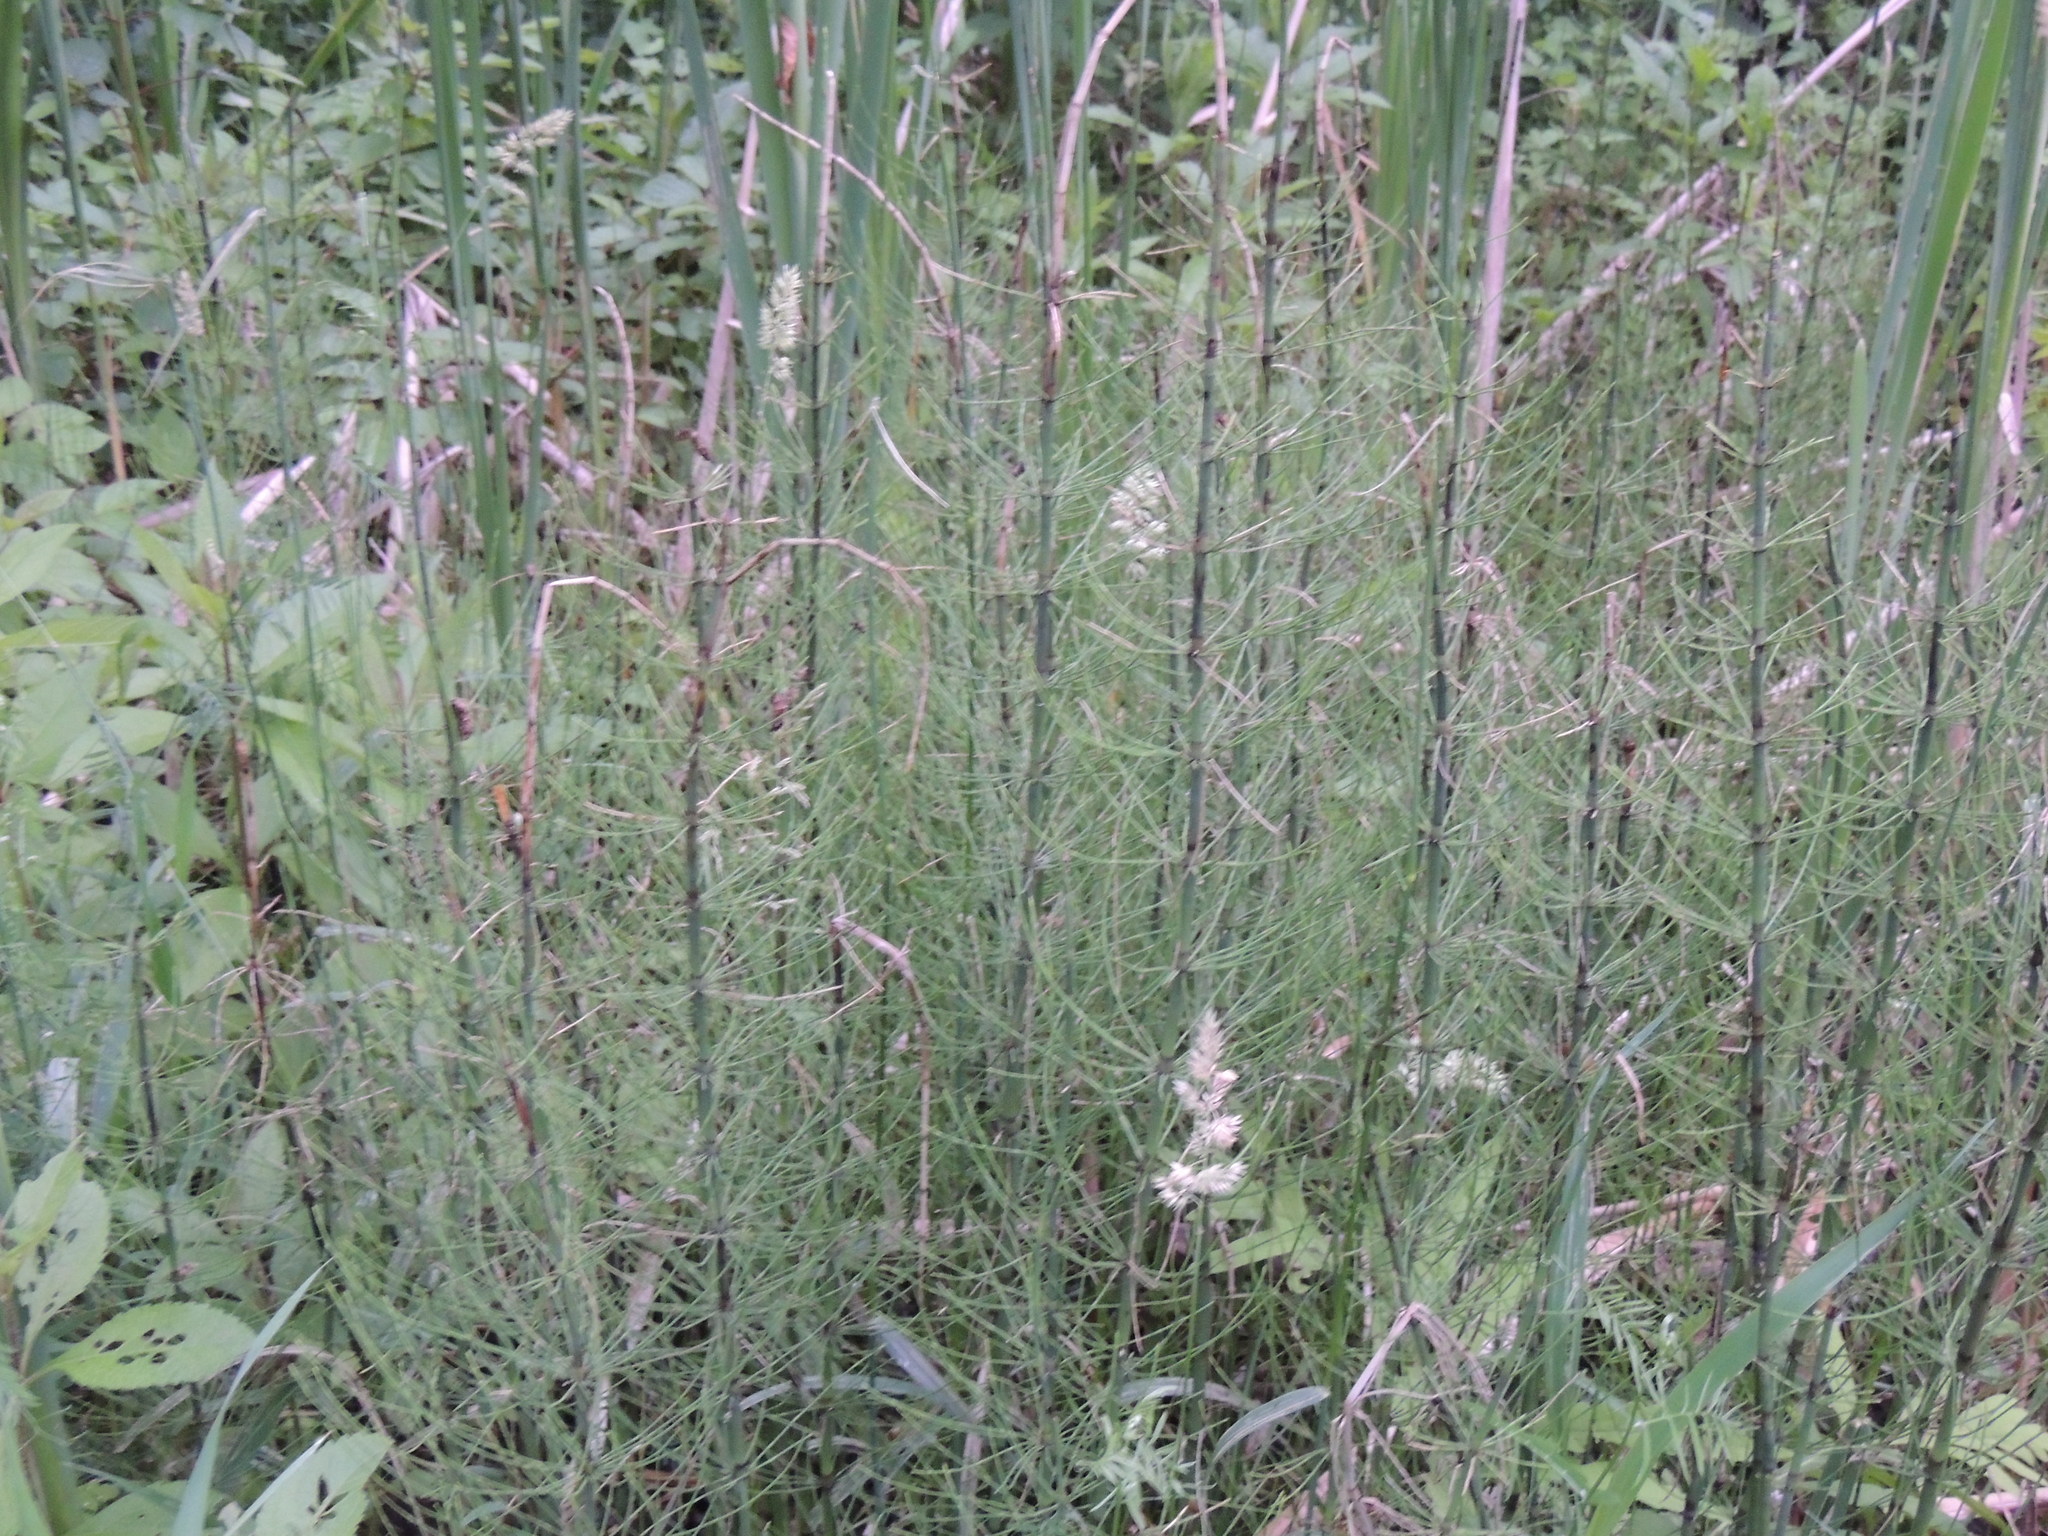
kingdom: Plantae
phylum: Tracheophyta
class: Polypodiopsida
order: Equisetales
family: Equisetaceae
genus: Equisetum
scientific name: Equisetum arvense
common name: Field horsetail
